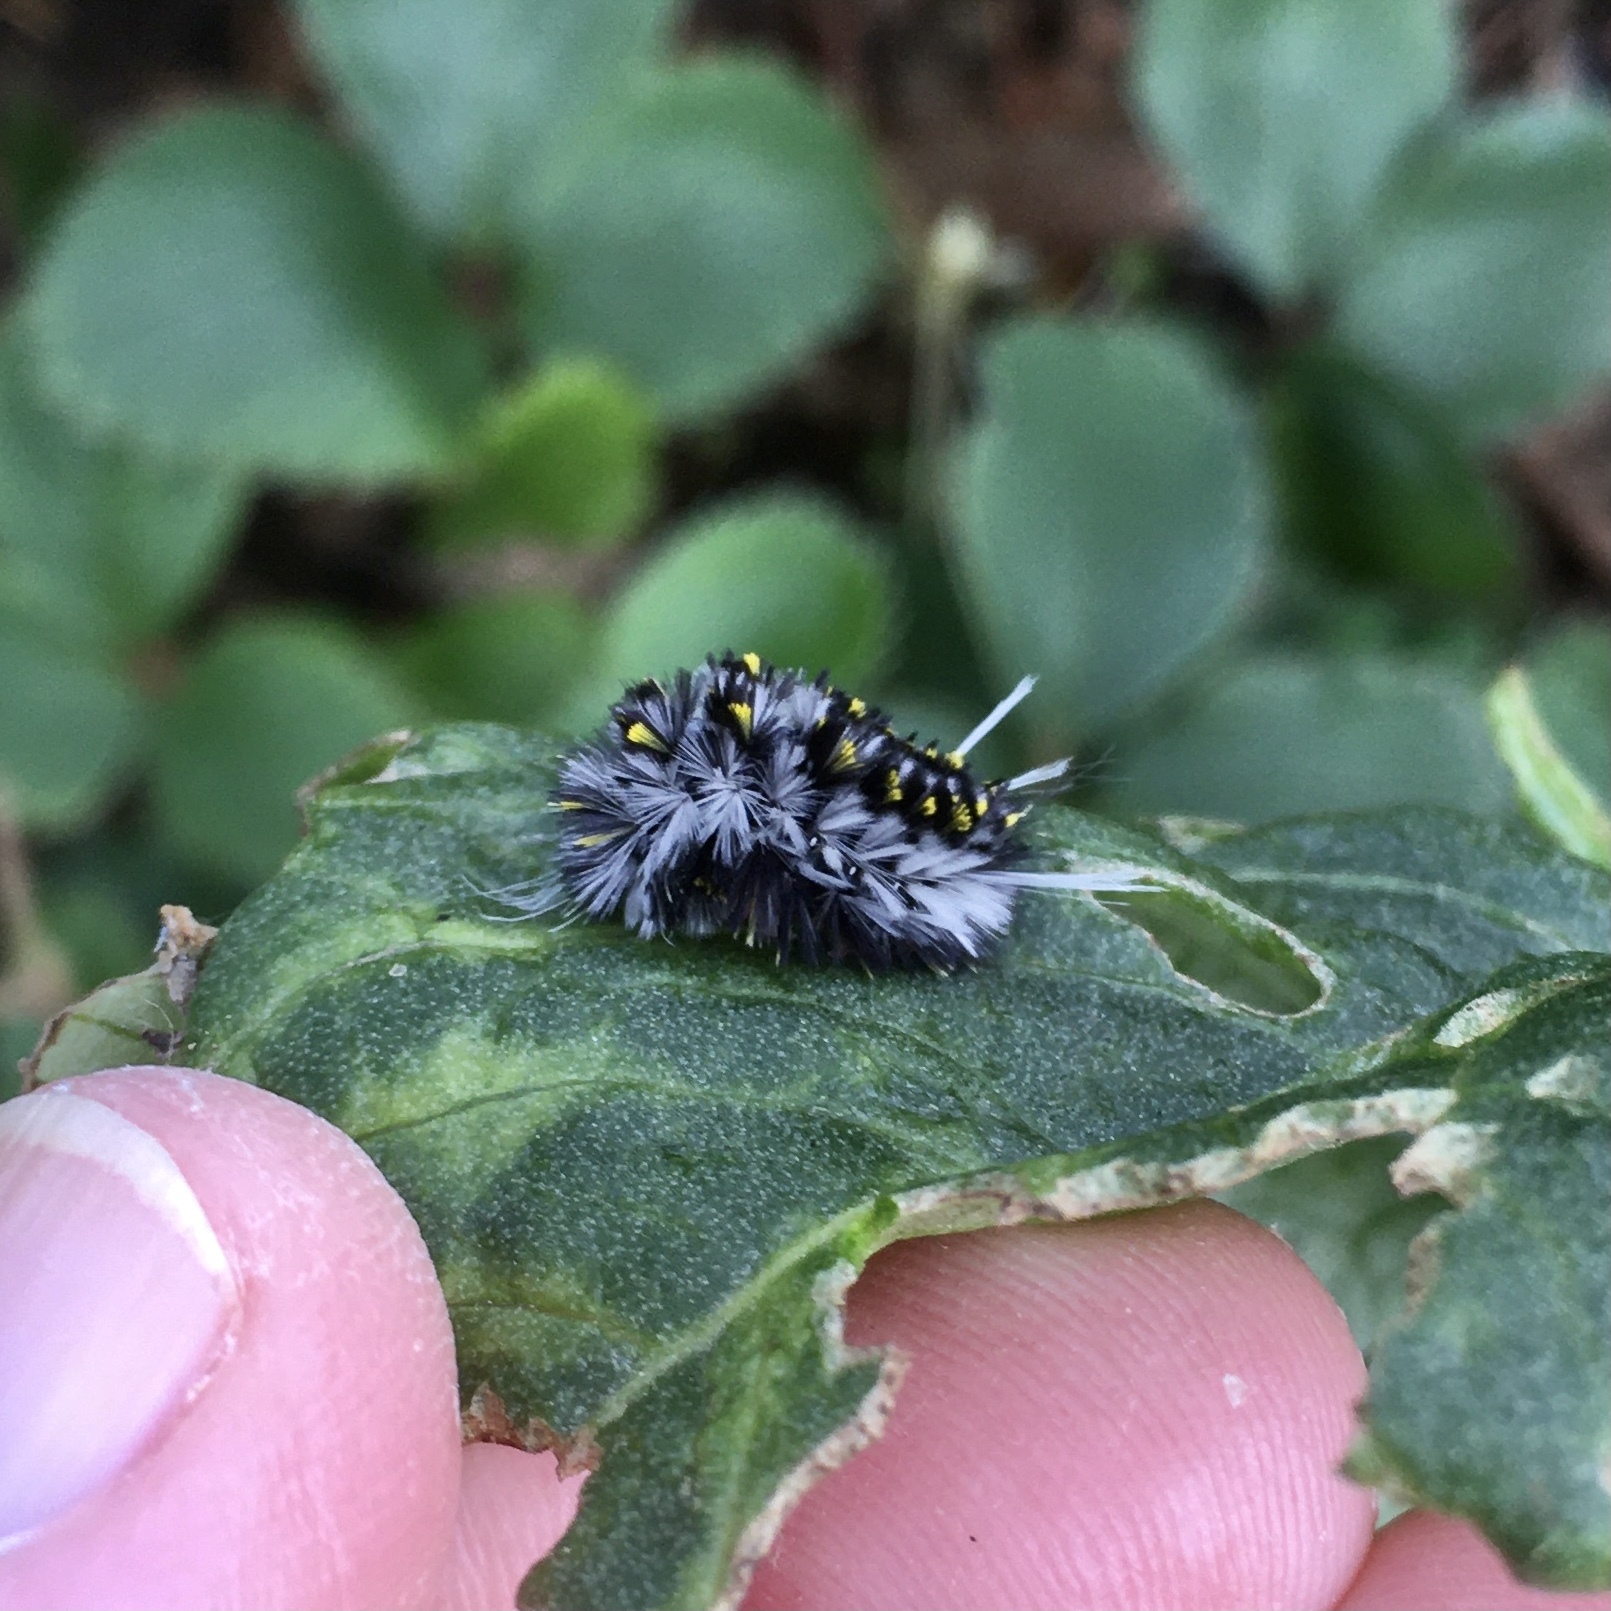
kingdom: Animalia
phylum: Arthropoda
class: Insecta
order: Lepidoptera
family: Erebidae
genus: Lophocampa
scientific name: Lophocampa roseata
